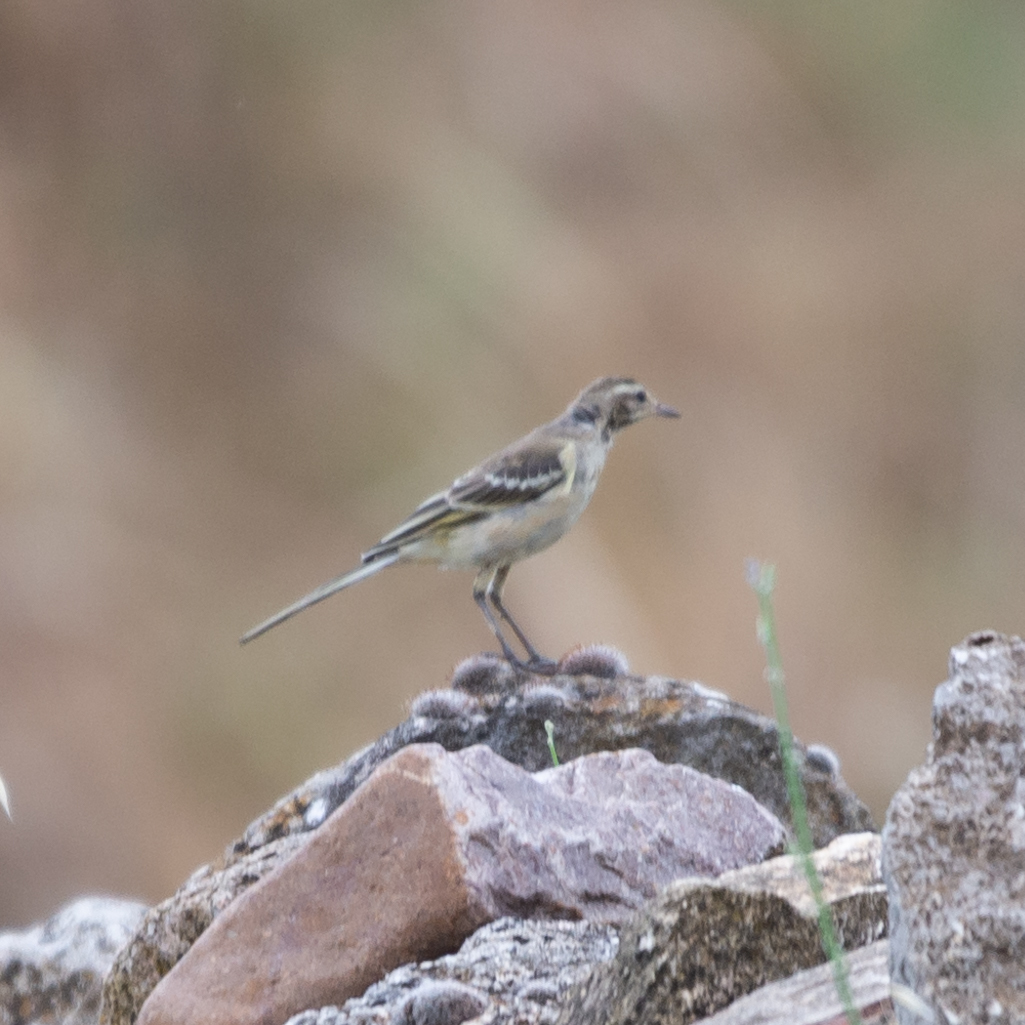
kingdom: Animalia
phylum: Chordata
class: Aves
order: Passeriformes
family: Motacillidae
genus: Motacilla
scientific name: Motacilla flava
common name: Western yellow wagtail
